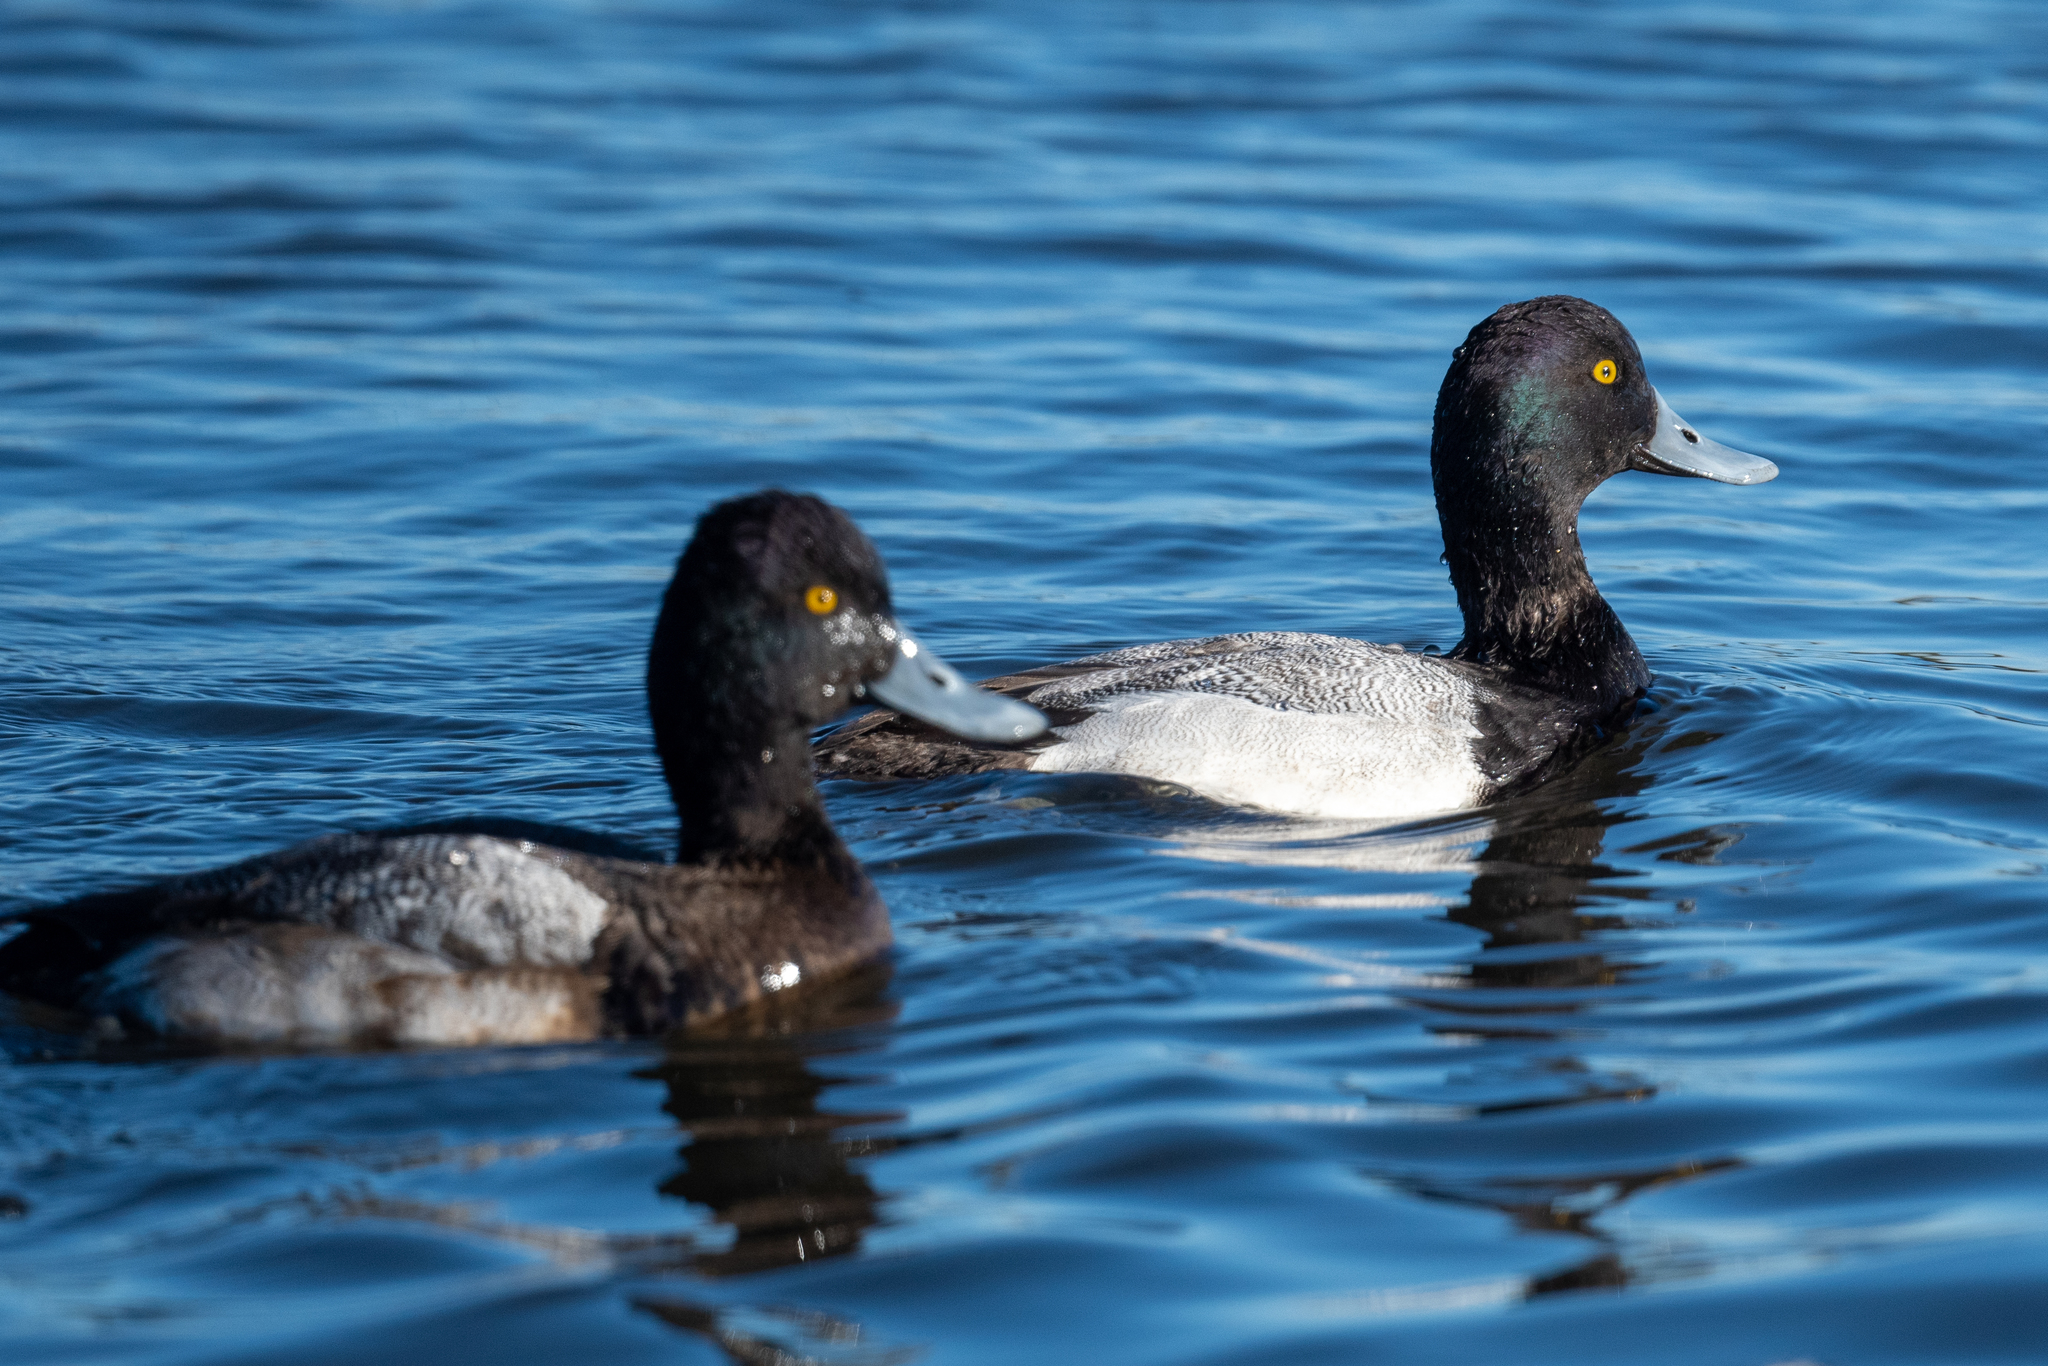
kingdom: Animalia
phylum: Chordata
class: Aves
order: Anseriformes
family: Anatidae
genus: Aythya
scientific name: Aythya affinis
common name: Lesser scaup
